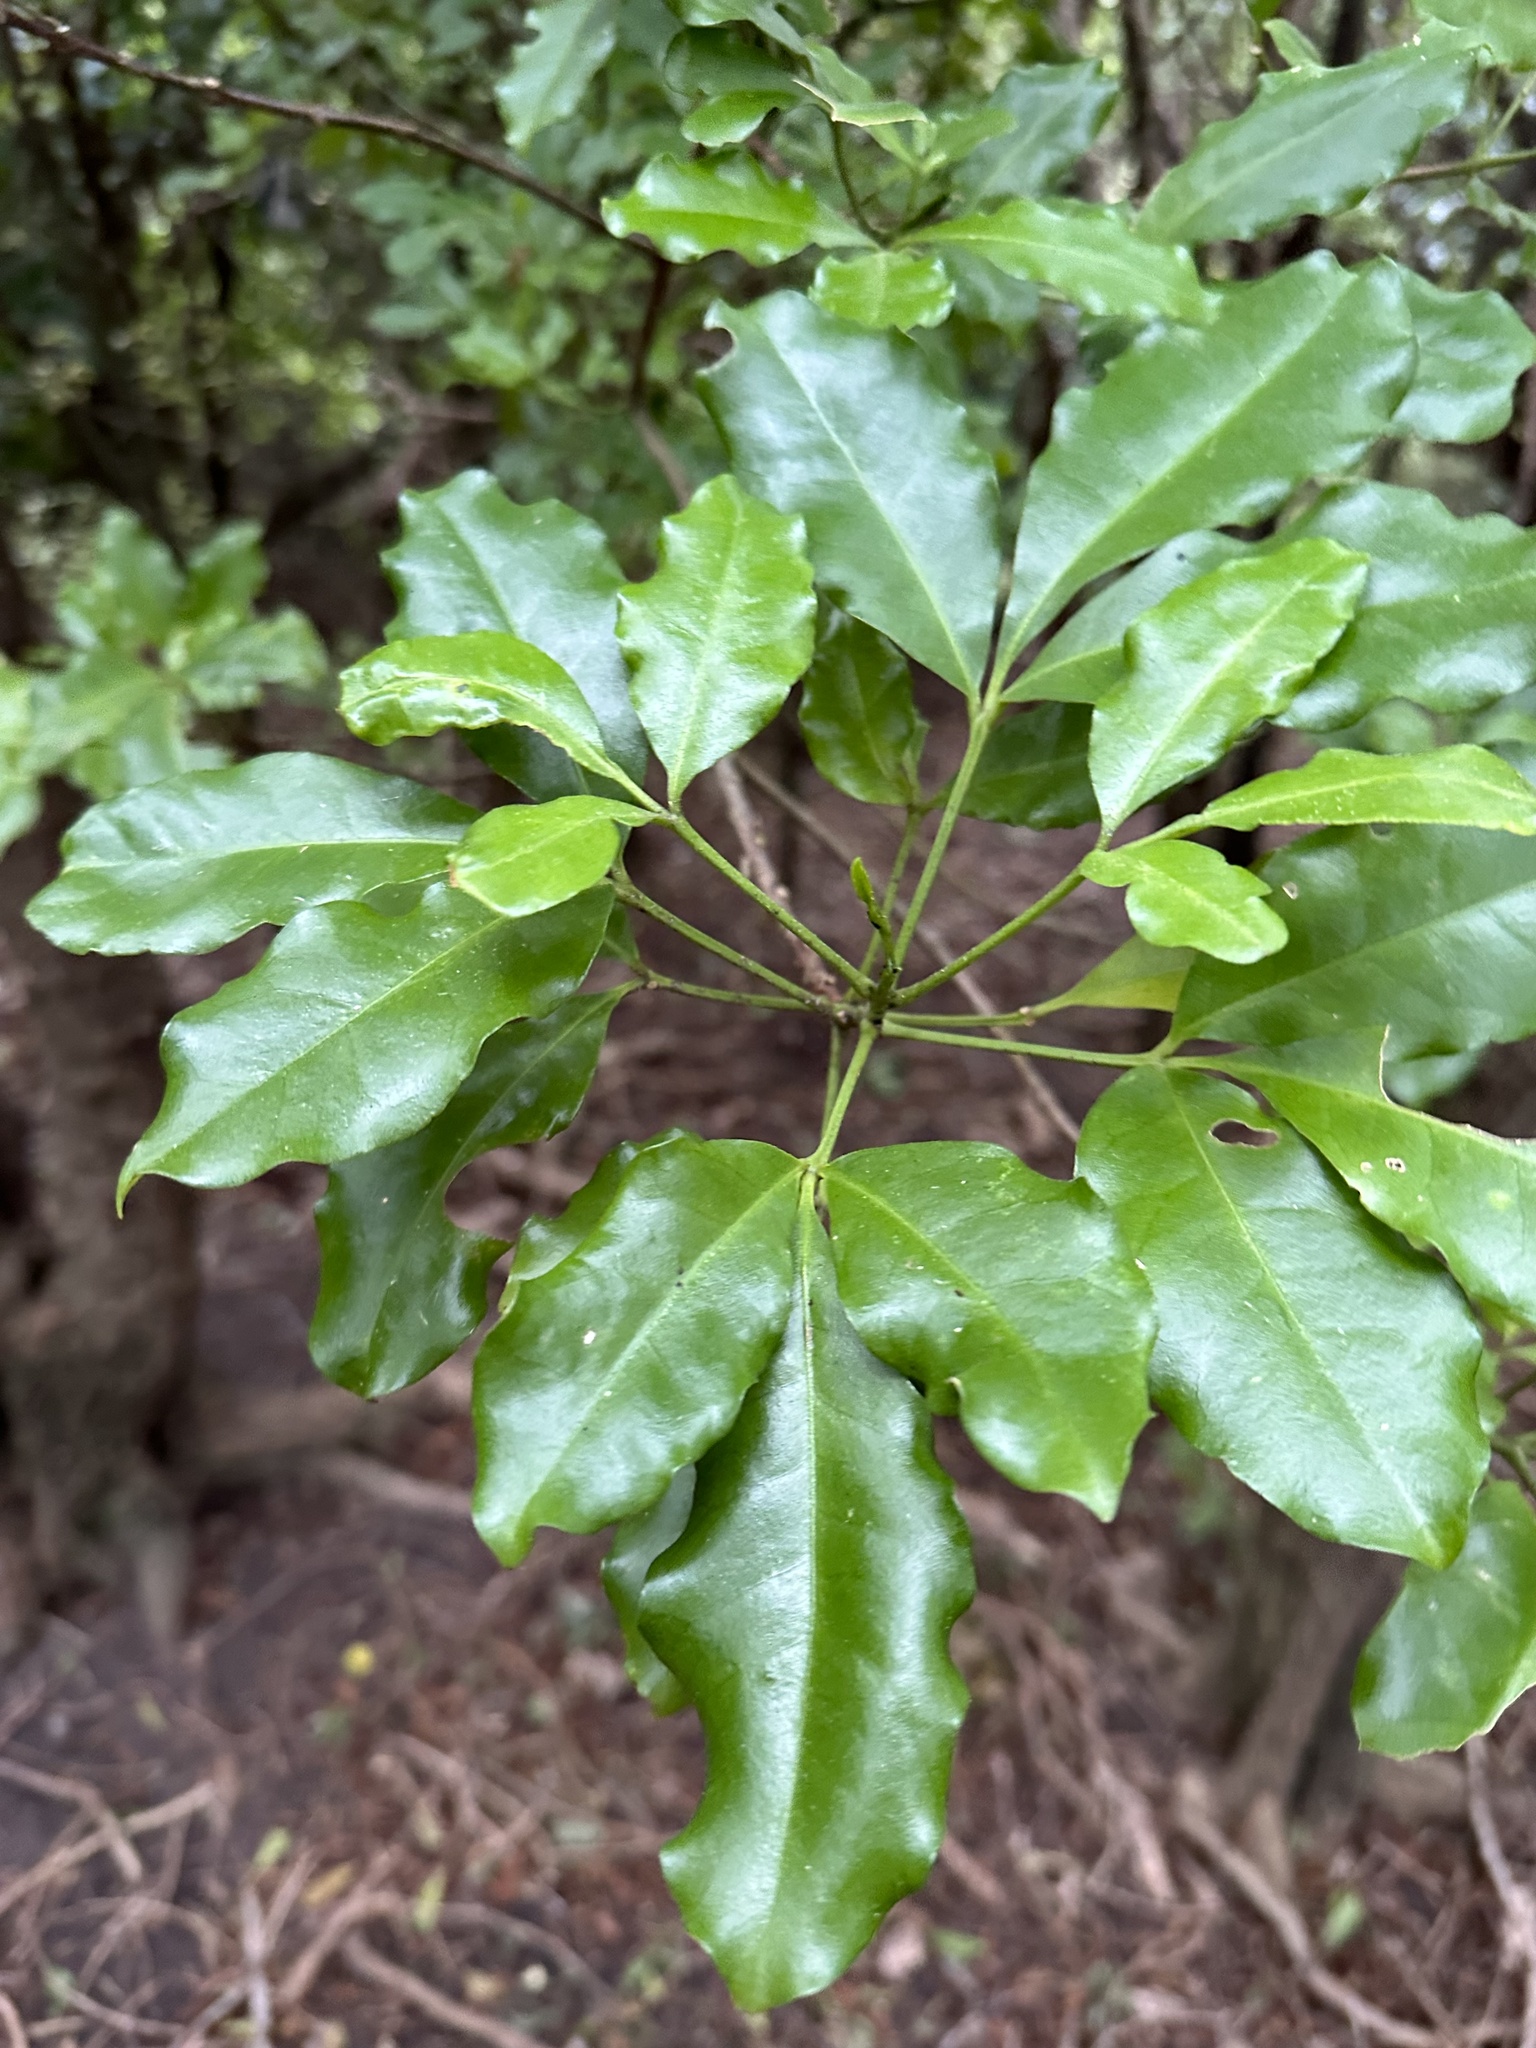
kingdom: Plantae
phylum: Tracheophyta
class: Magnoliopsida
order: Sapindales
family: Rutaceae
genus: Melicope
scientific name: Melicope ternata
